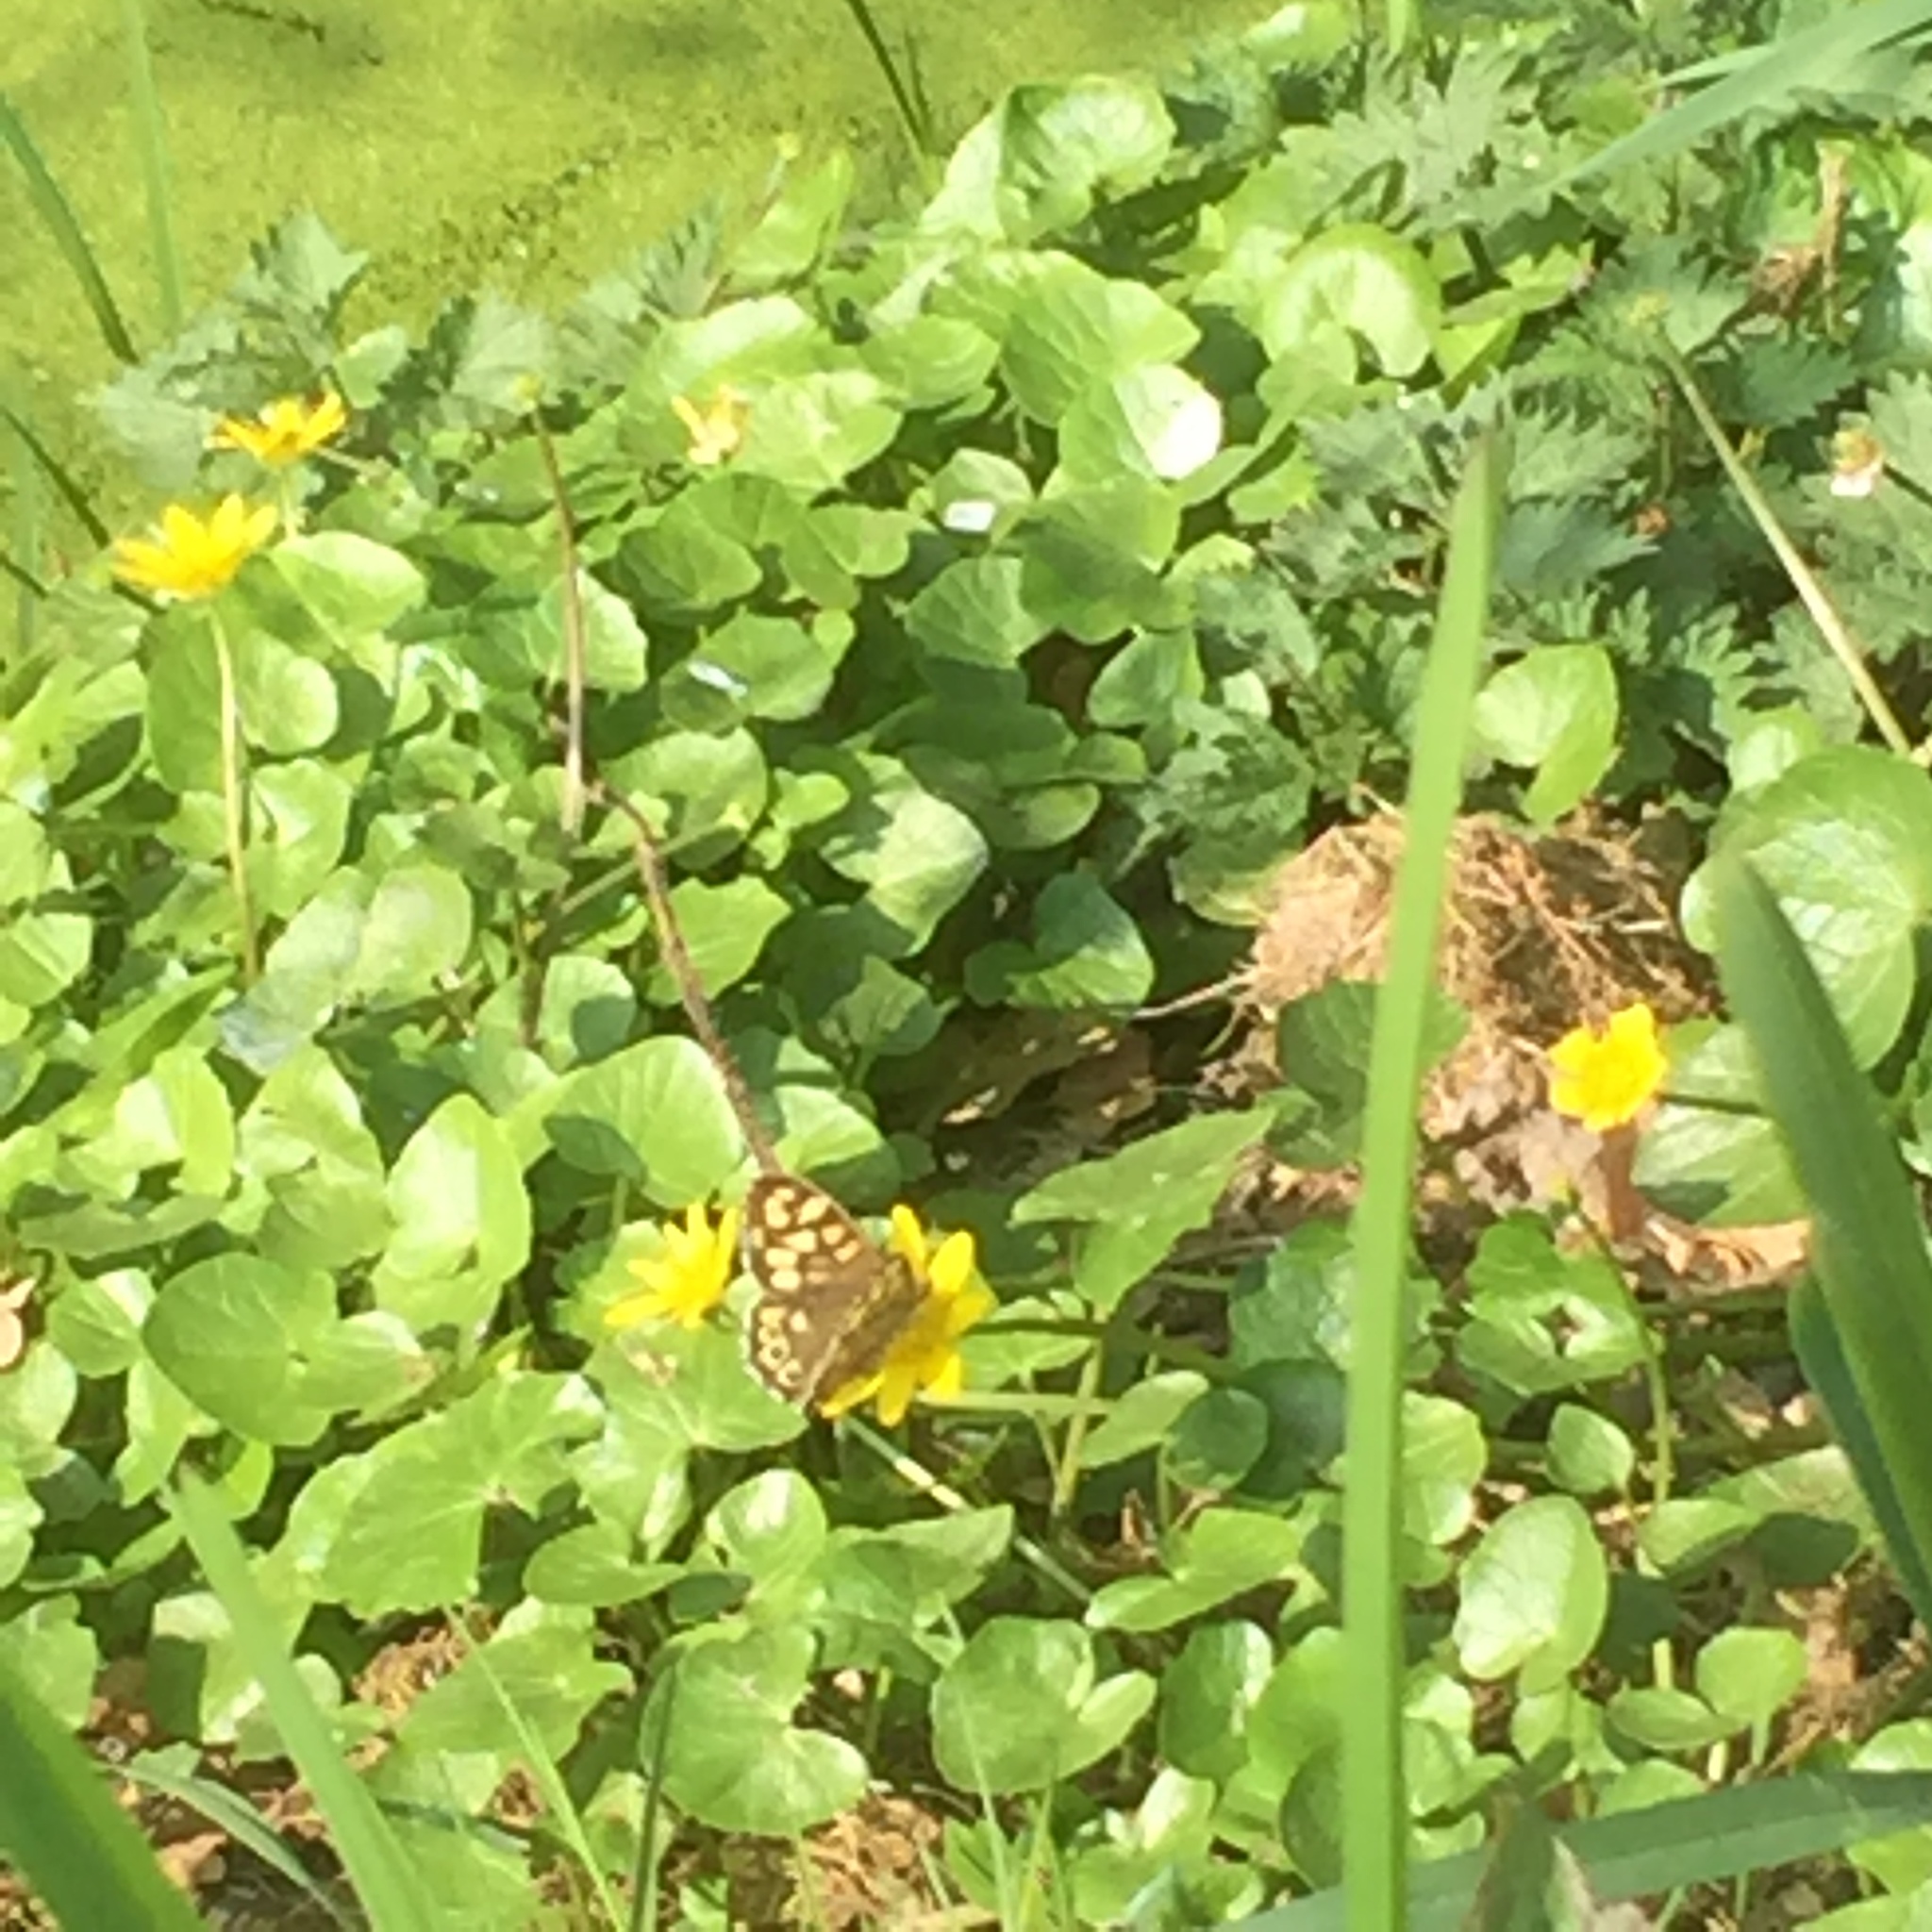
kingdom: Animalia
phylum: Arthropoda
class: Insecta
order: Lepidoptera
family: Nymphalidae
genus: Pararge
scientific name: Pararge aegeria
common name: Speckled wood
